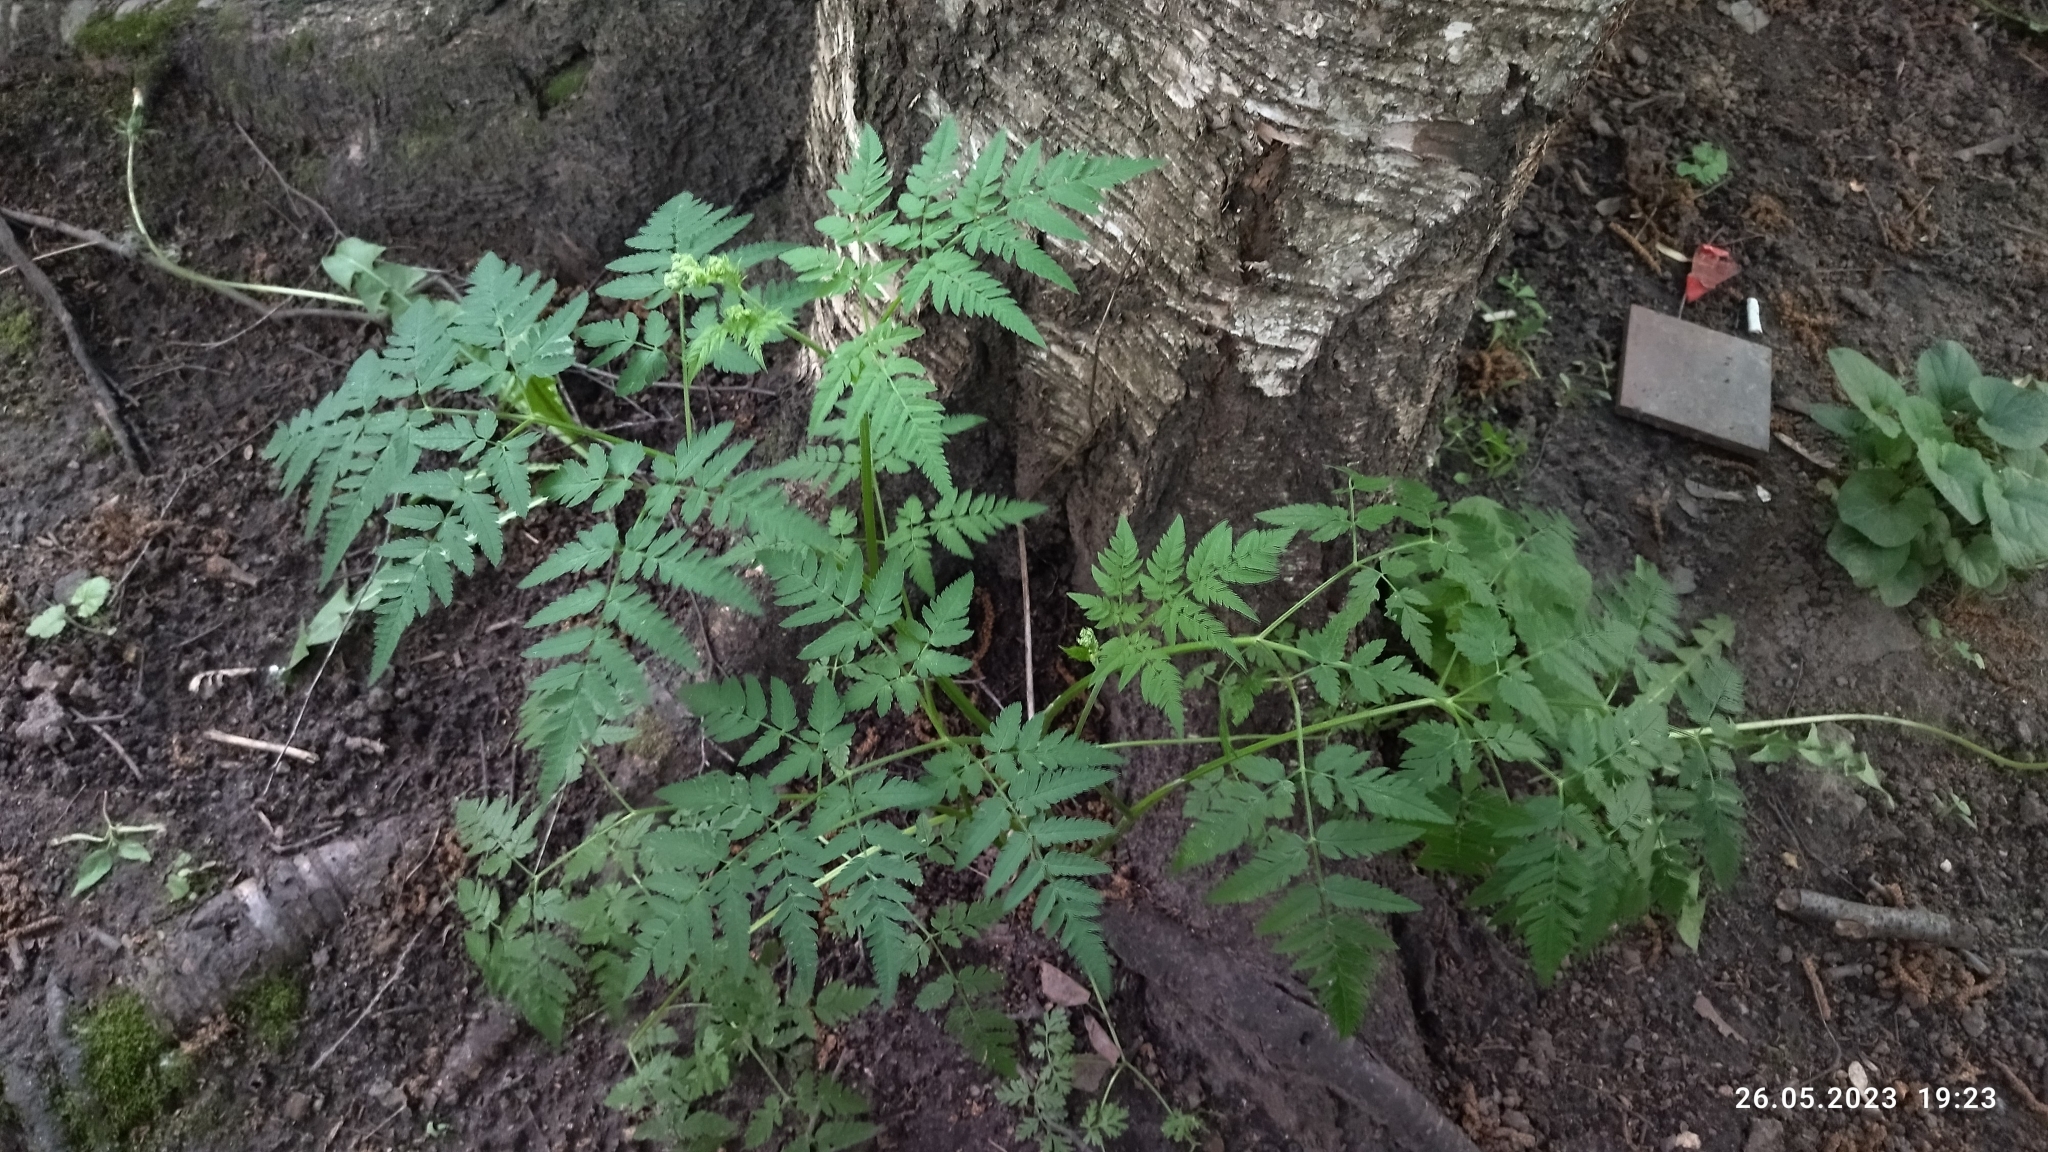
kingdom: Plantae
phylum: Tracheophyta
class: Magnoliopsida
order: Apiales
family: Apiaceae
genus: Anthriscus
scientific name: Anthriscus sylvestris
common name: Cow parsley
